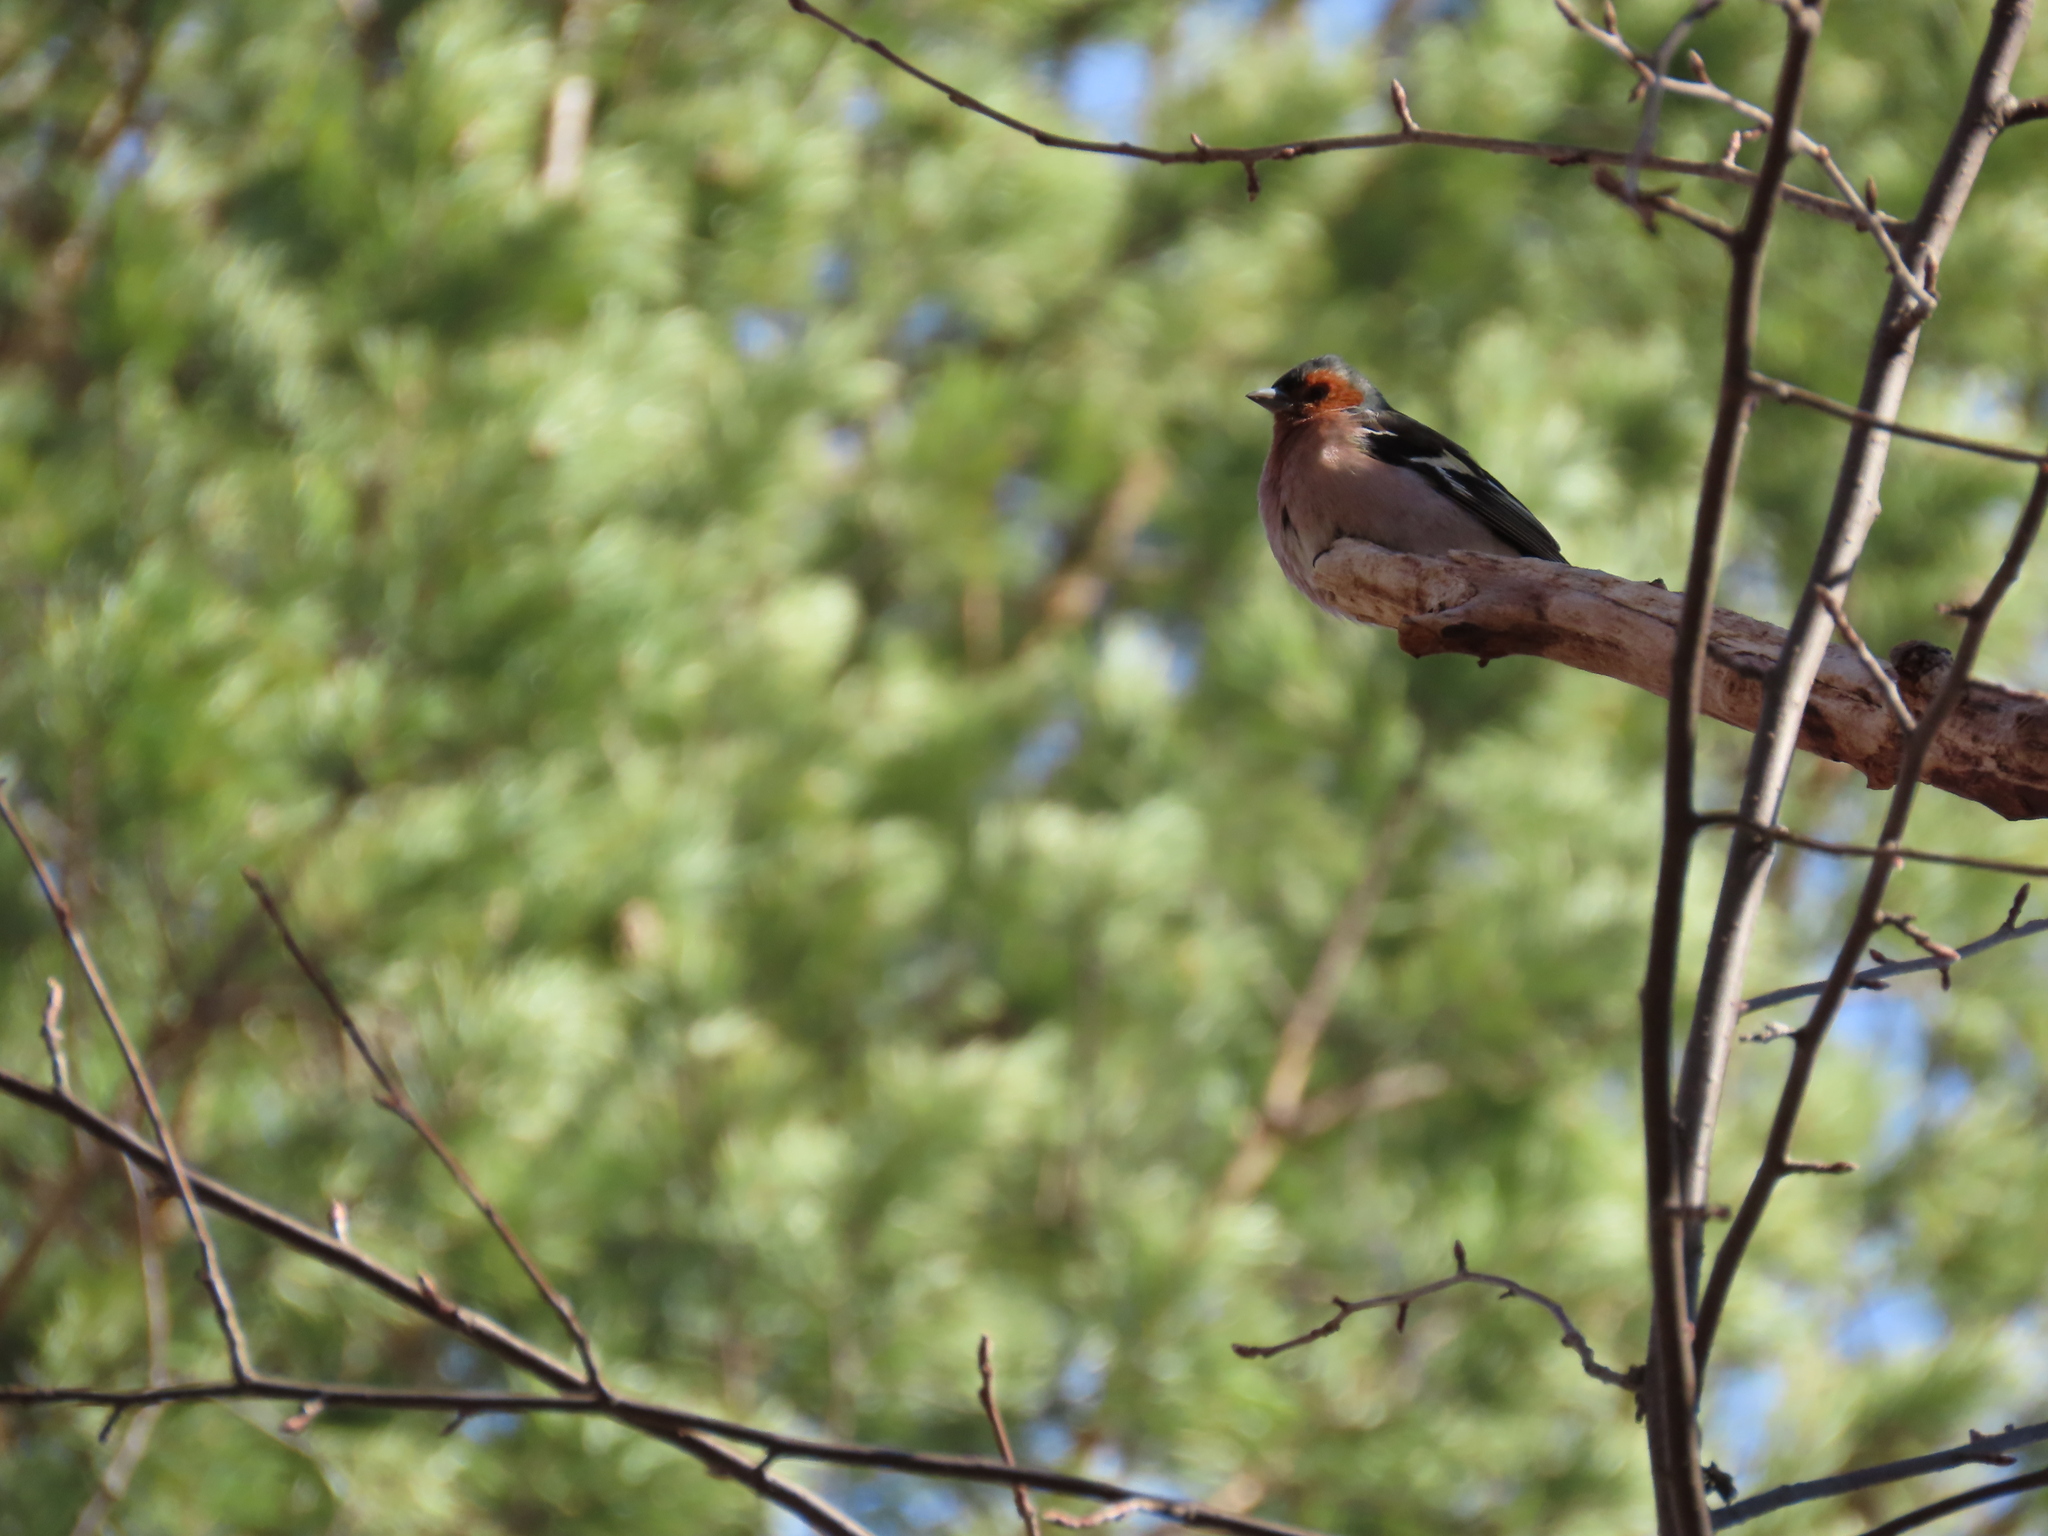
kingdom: Animalia
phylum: Chordata
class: Aves
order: Passeriformes
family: Fringillidae
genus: Fringilla
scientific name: Fringilla coelebs
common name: Common chaffinch
